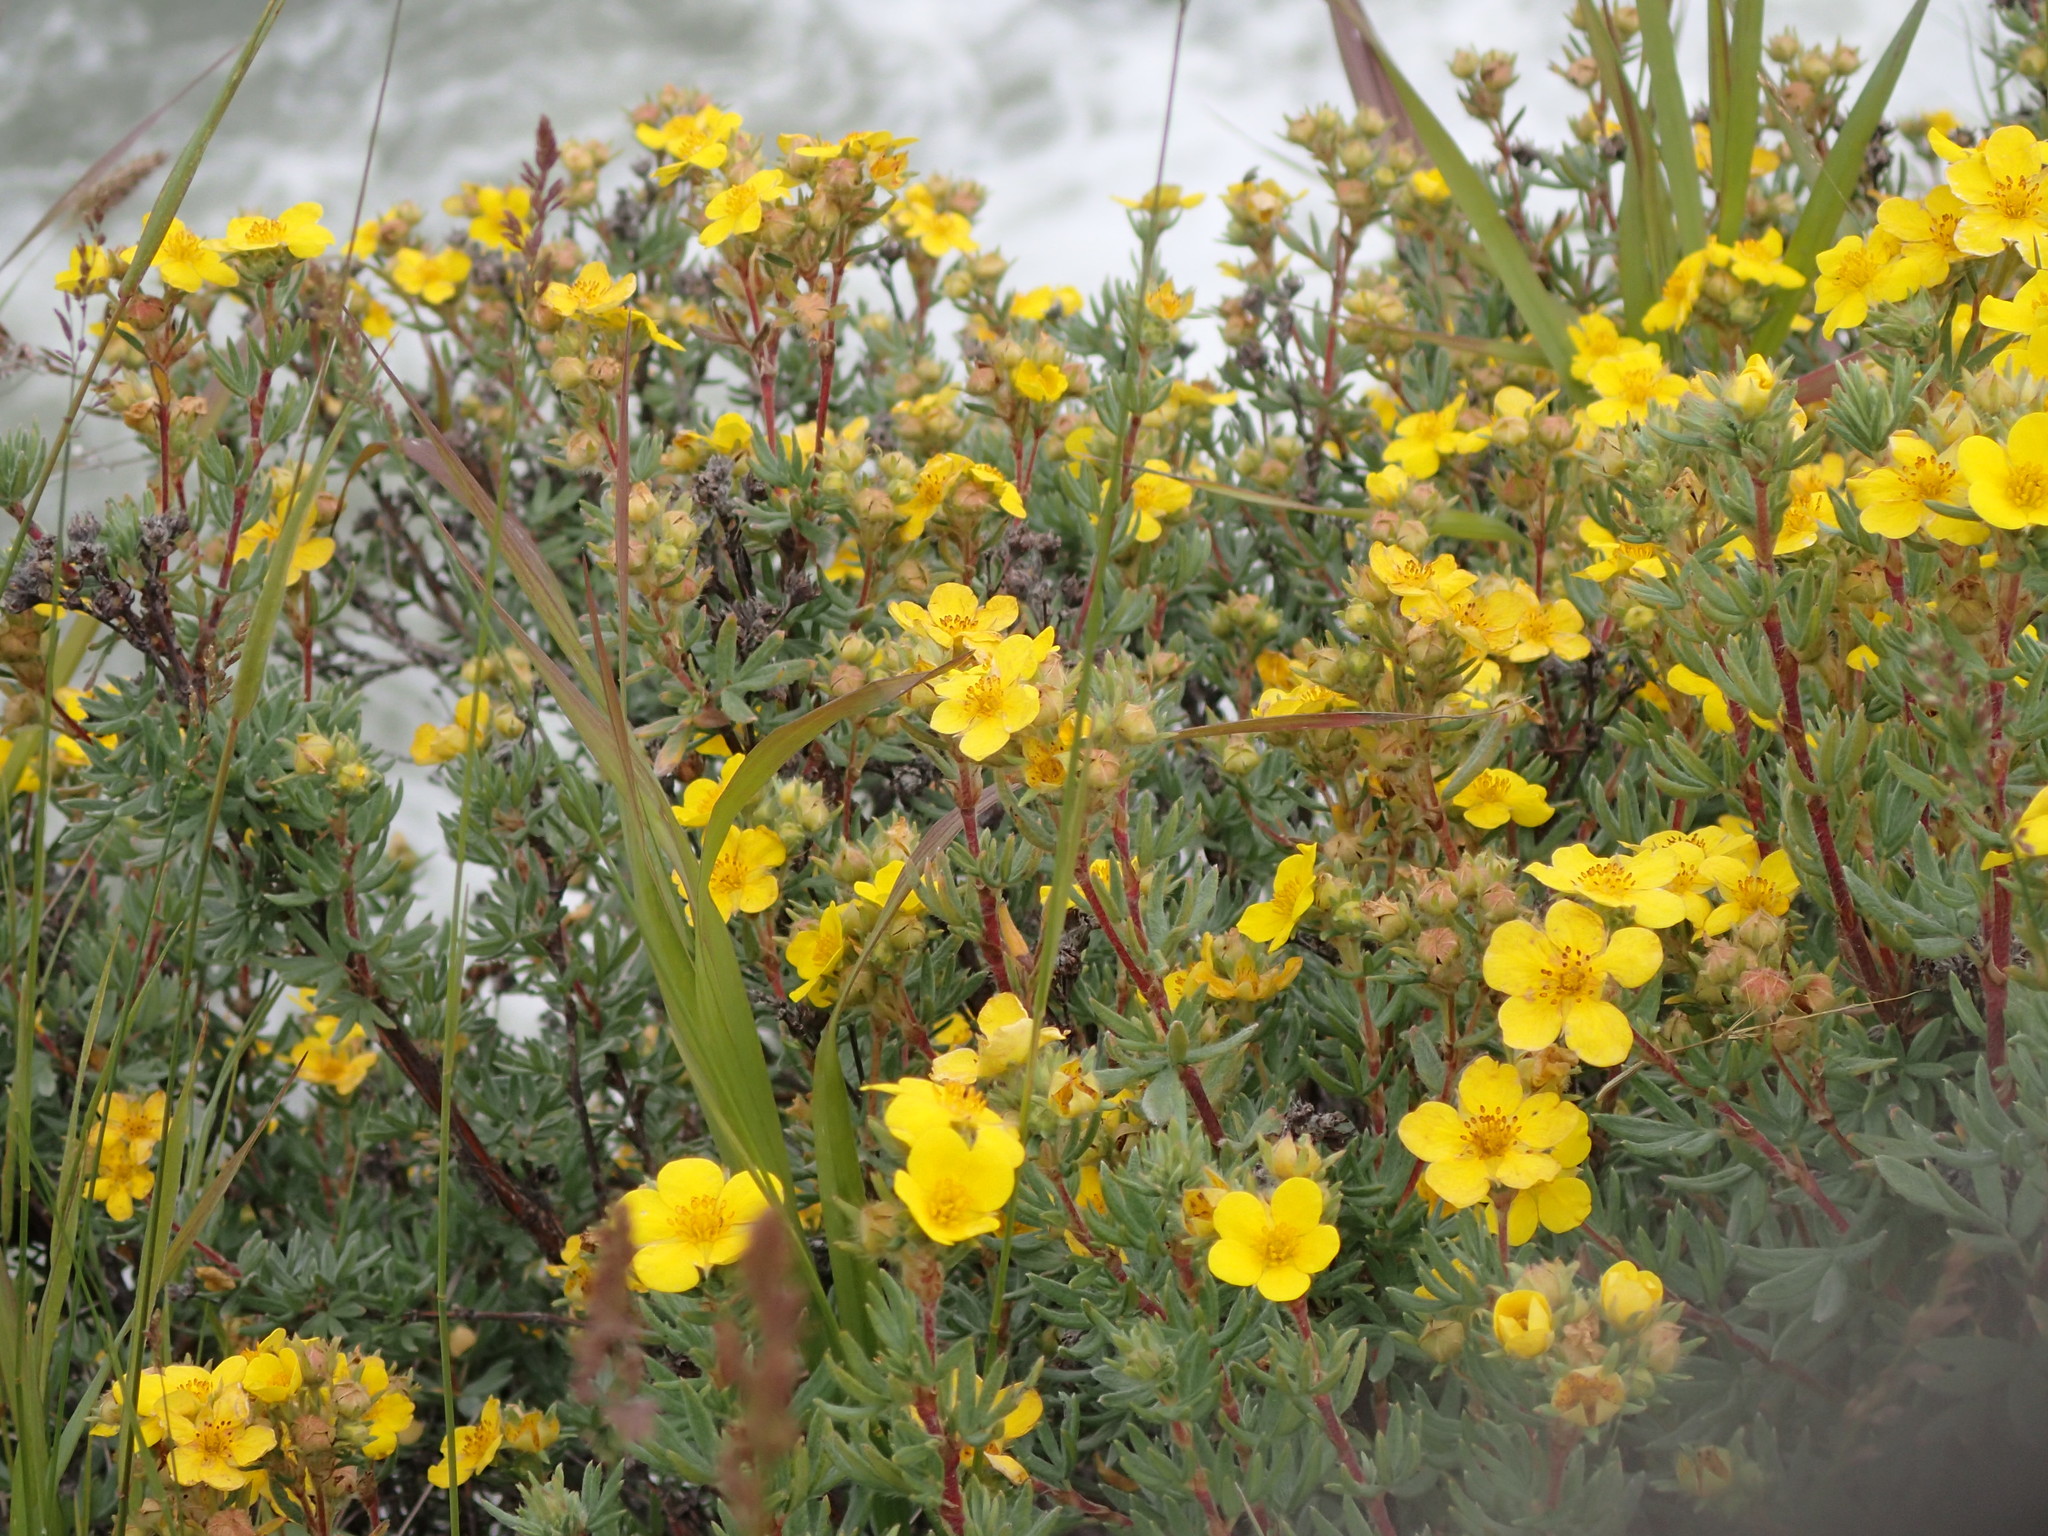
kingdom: Plantae
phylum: Tracheophyta
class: Magnoliopsida
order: Rosales
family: Rosaceae
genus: Dasiphora
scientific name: Dasiphora fruticosa
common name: Shrubby cinquefoil
